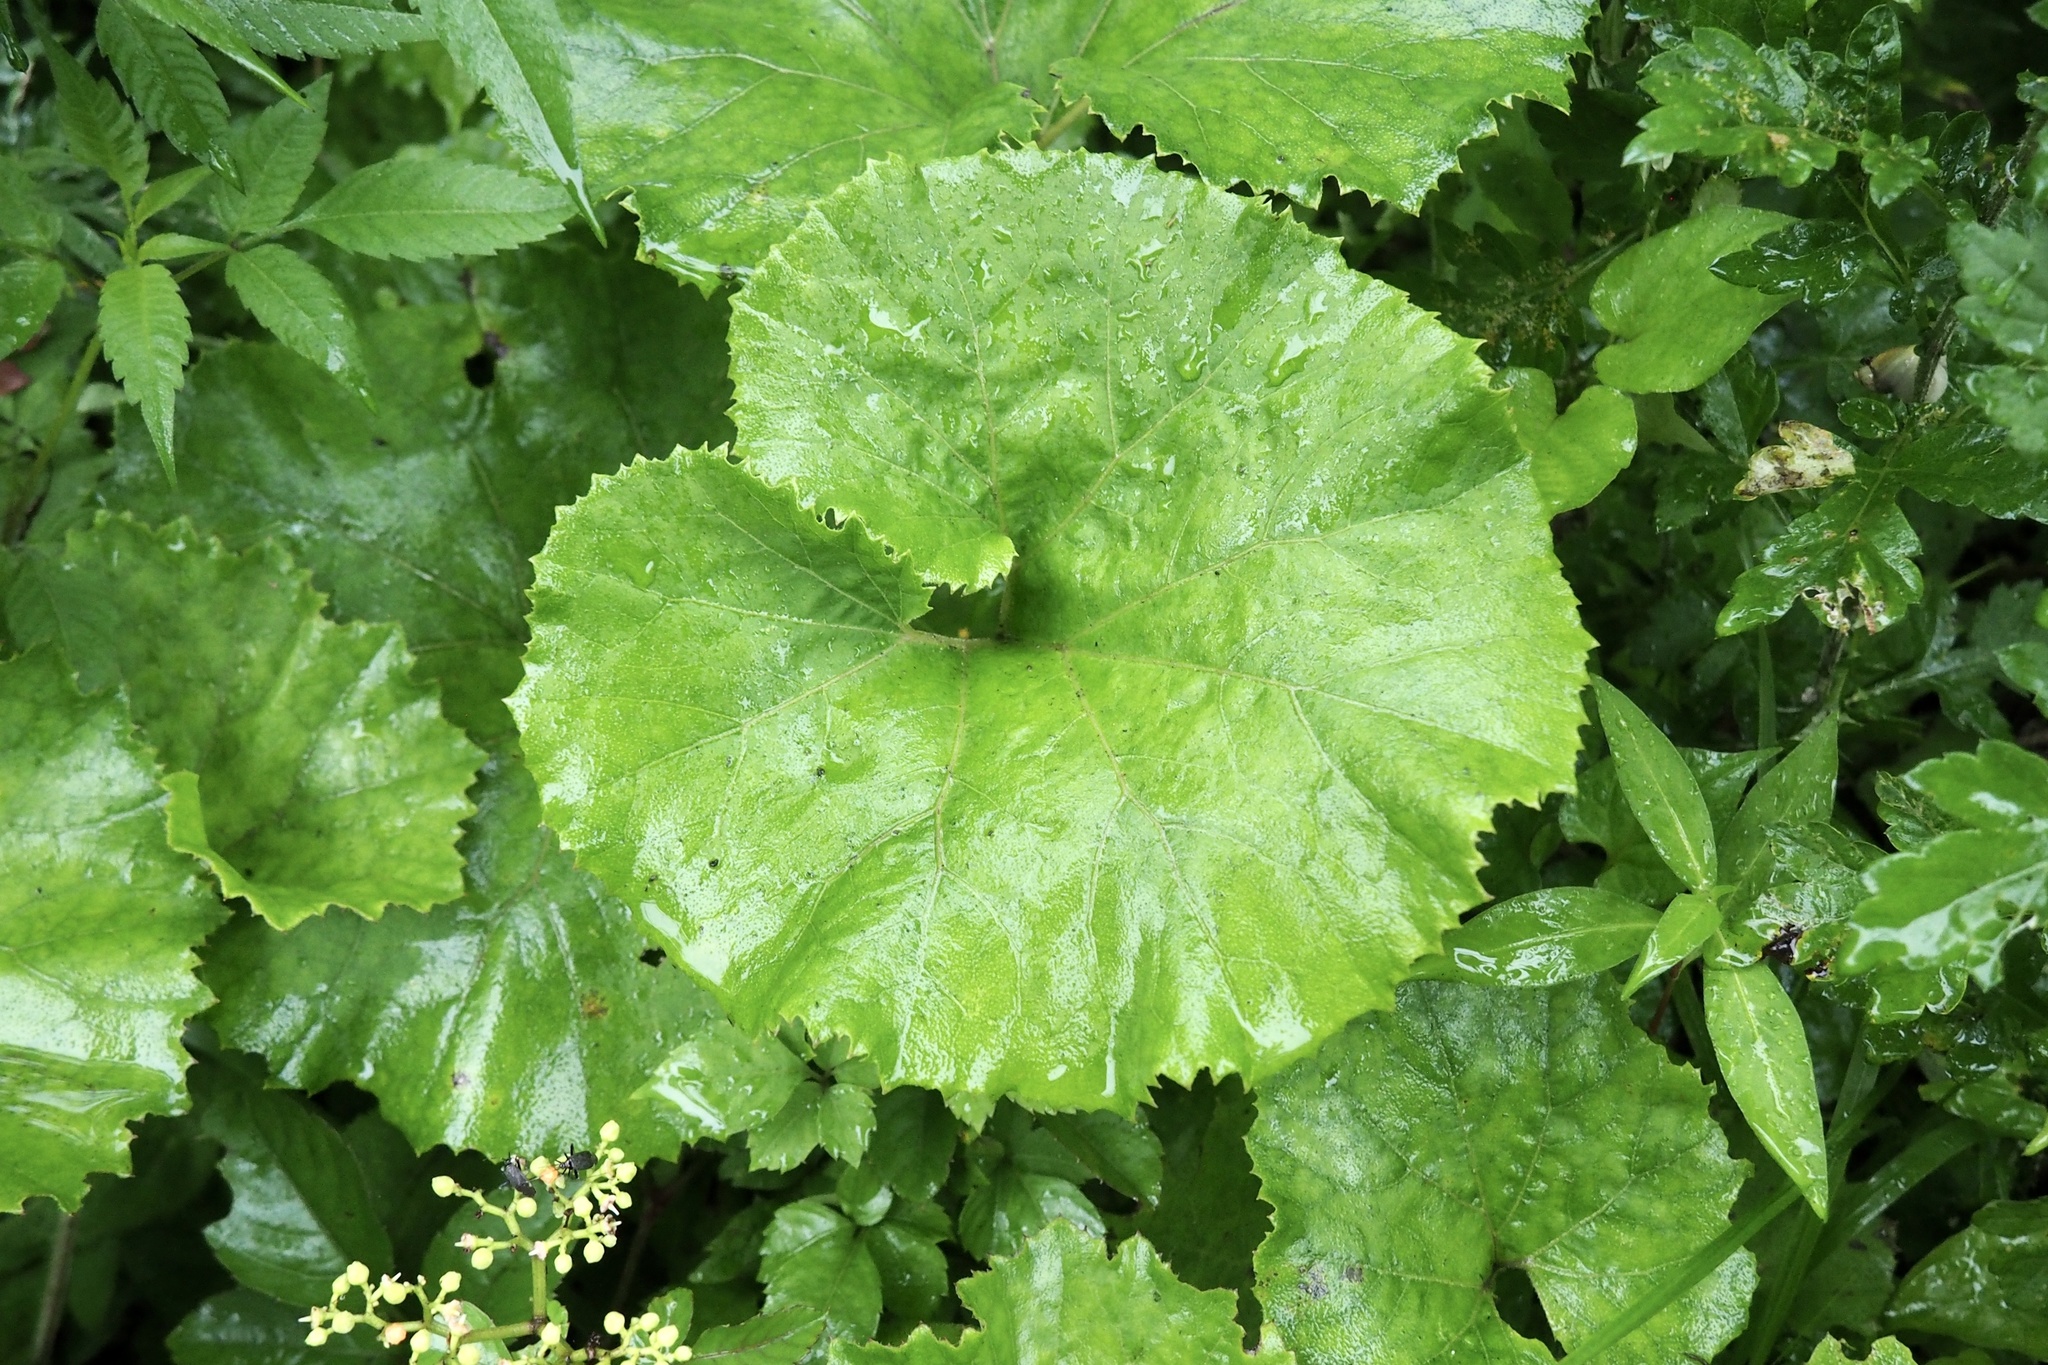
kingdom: Plantae
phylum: Tracheophyta
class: Magnoliopsida
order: Asterales
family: Asteraceae
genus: Petasites
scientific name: Petasites japonicus
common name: Giant butterbur
